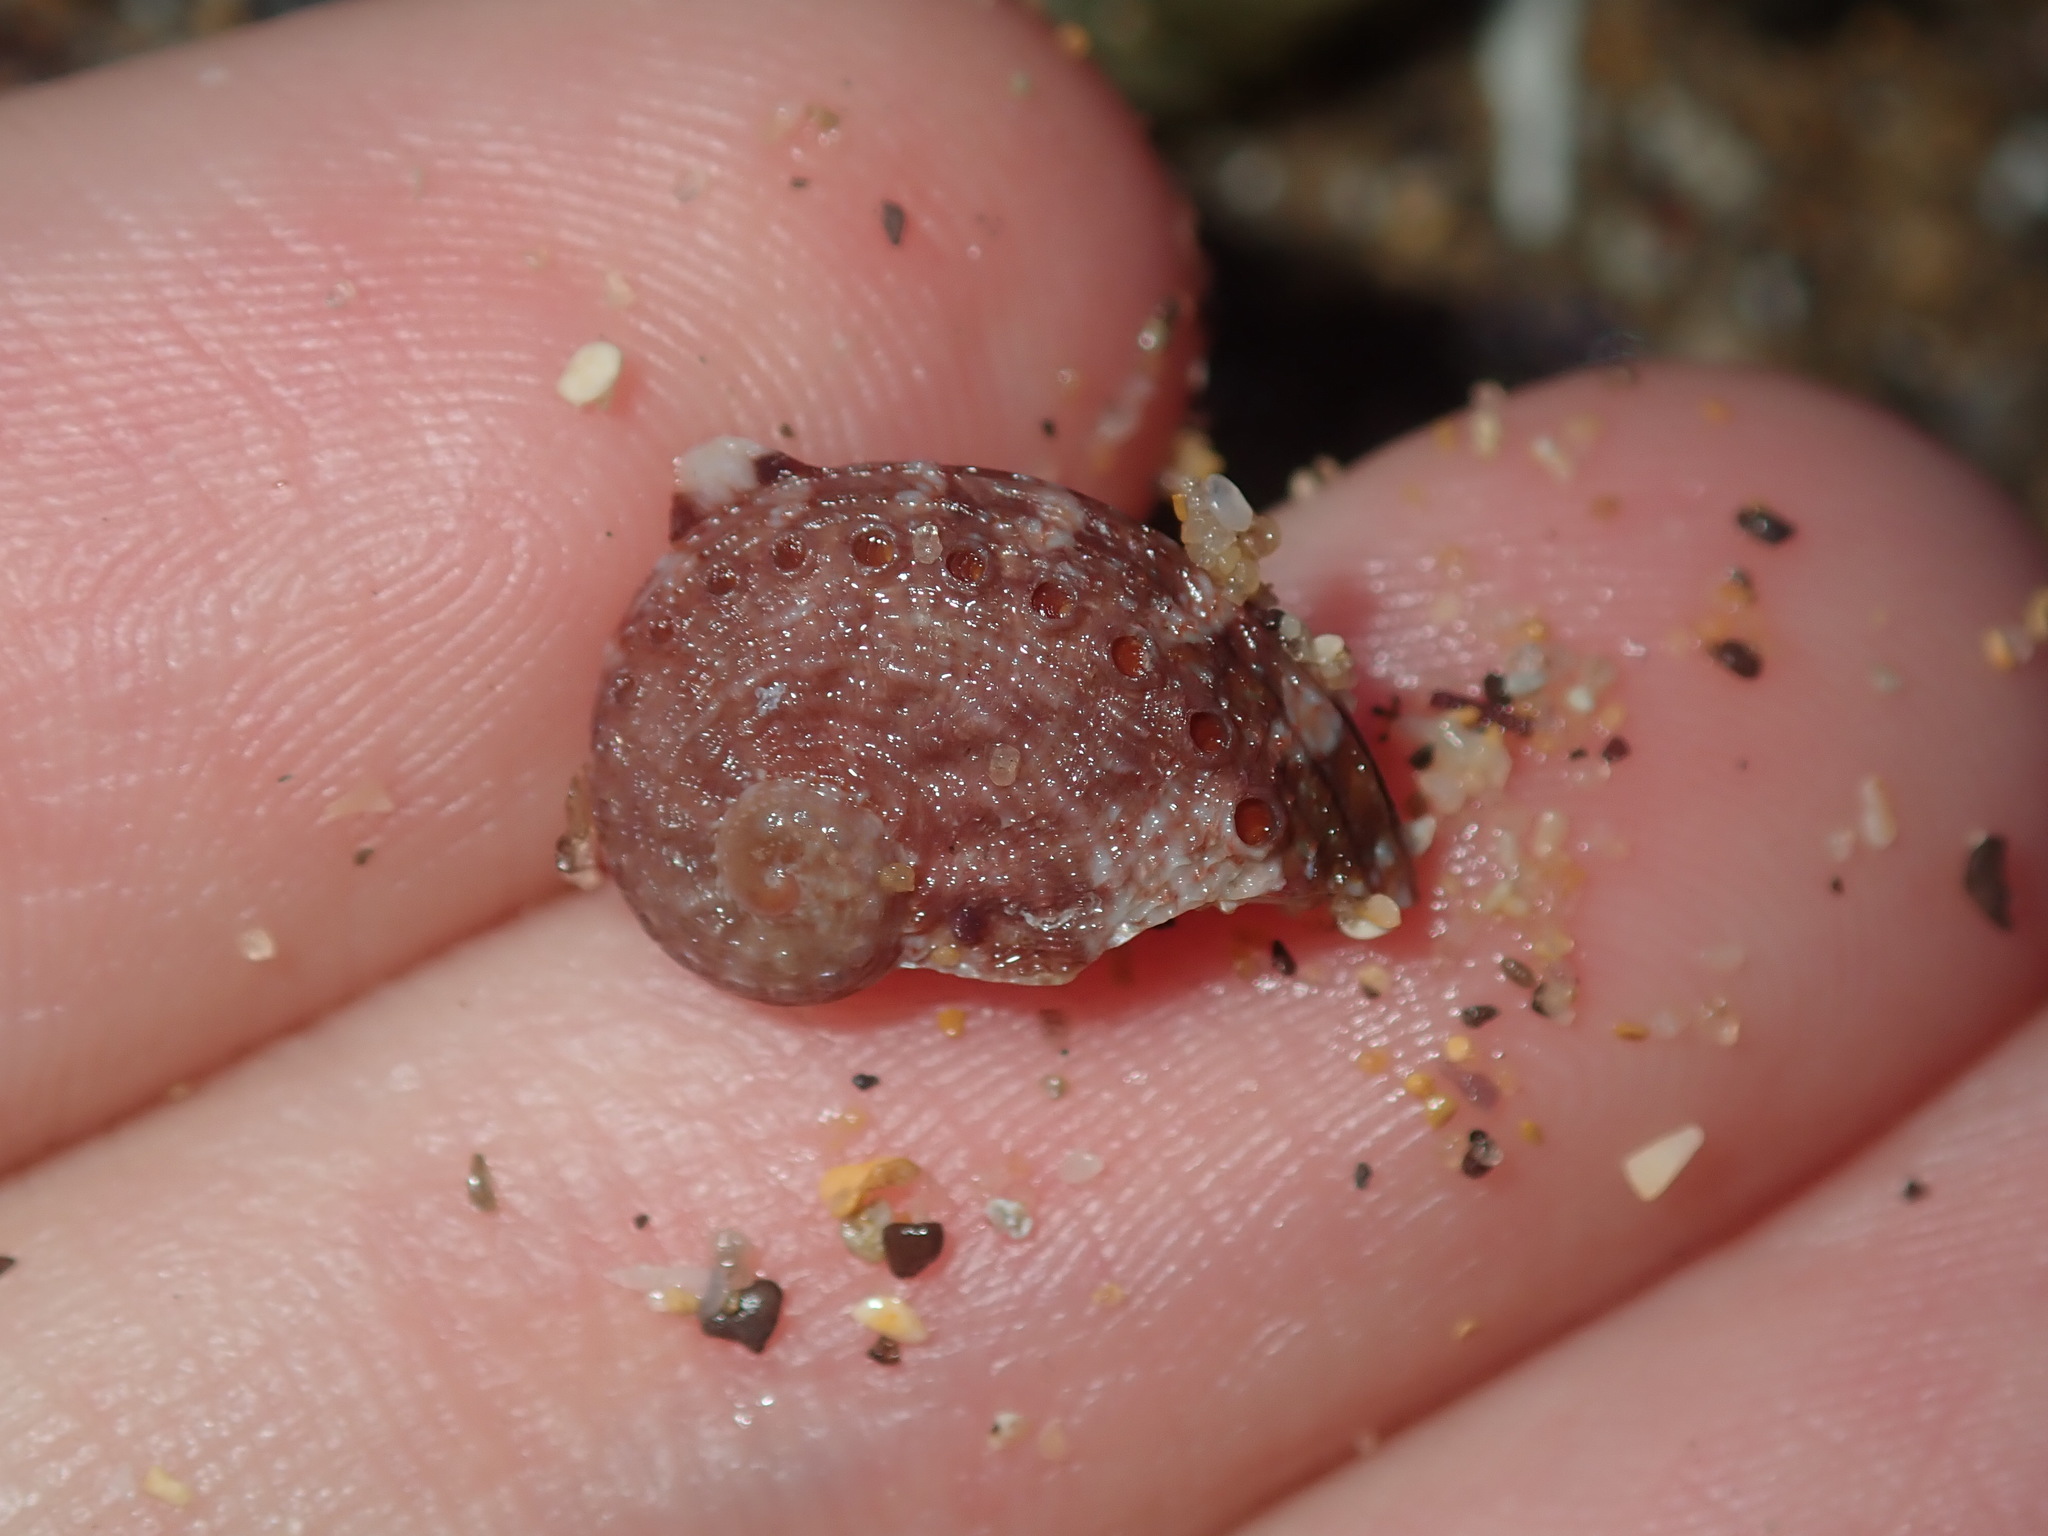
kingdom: Animalia
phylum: Mollusca
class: Gastropoda
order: Lepetellida
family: Haliotidae
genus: Haliotis
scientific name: Haliotis rubra
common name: Blacklip abalone
